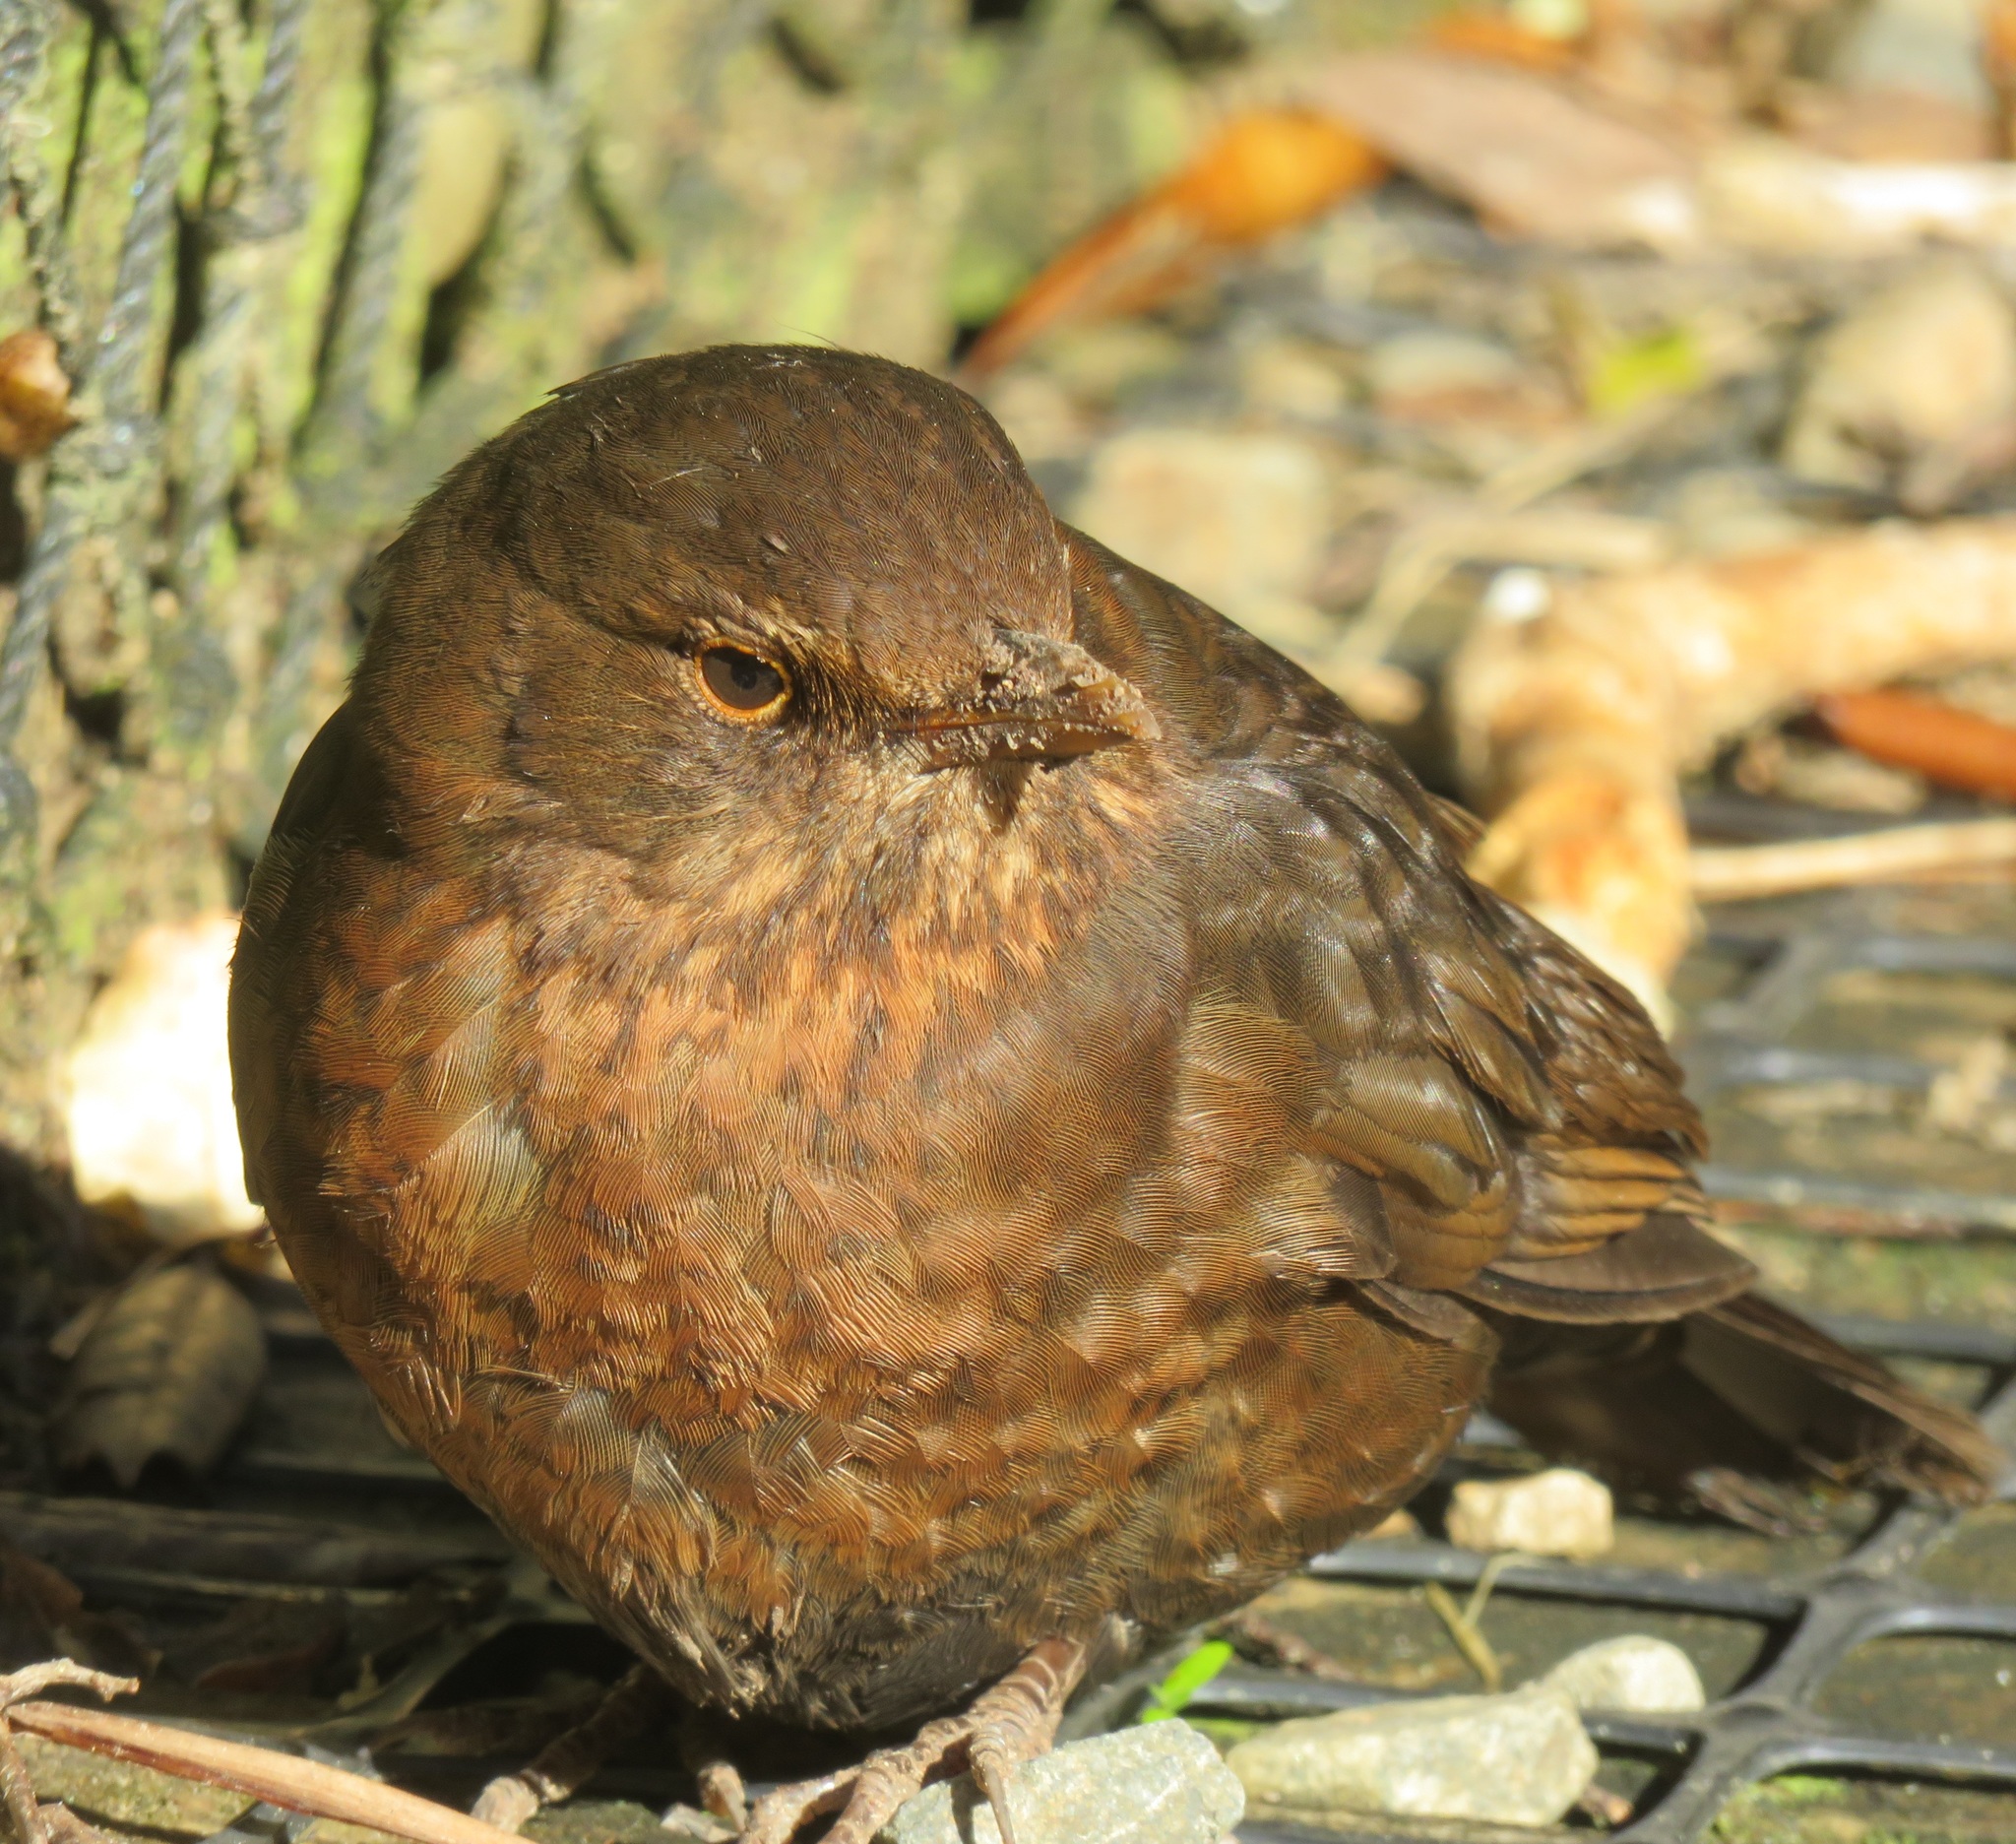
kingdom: Animalia
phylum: Chordata
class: Aves
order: Passeriformes
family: Turdidae
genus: Turdus
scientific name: Turdus merula
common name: Common blackbird
